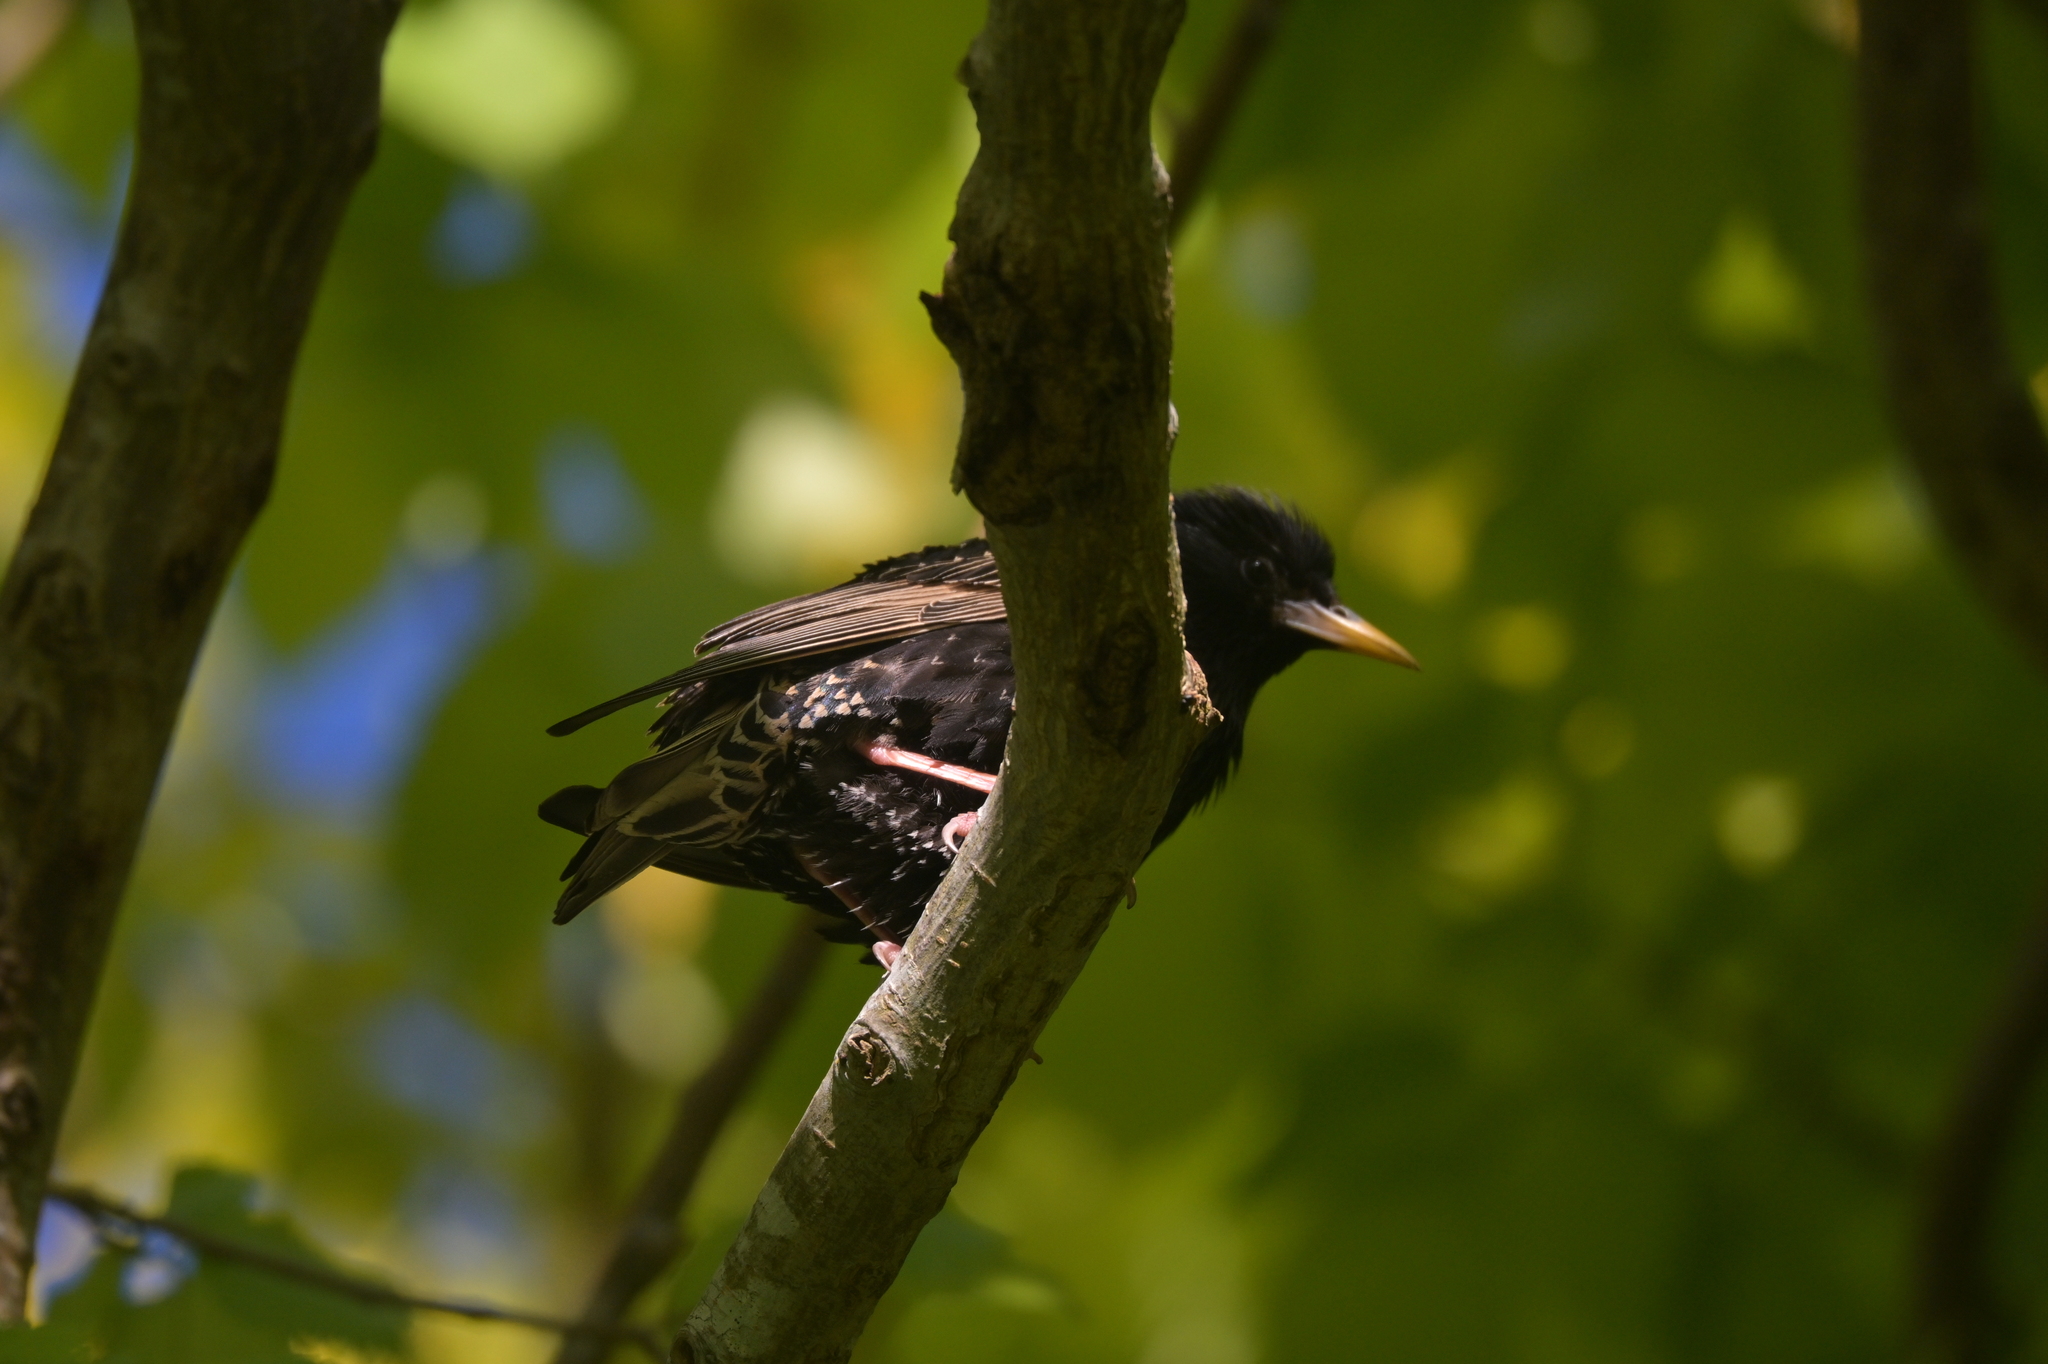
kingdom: Animalia
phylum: Chordata
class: Aves
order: Passeriformes
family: Sturnidae
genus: Sturnus
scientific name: Sturnus vulgaris
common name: Common starling
